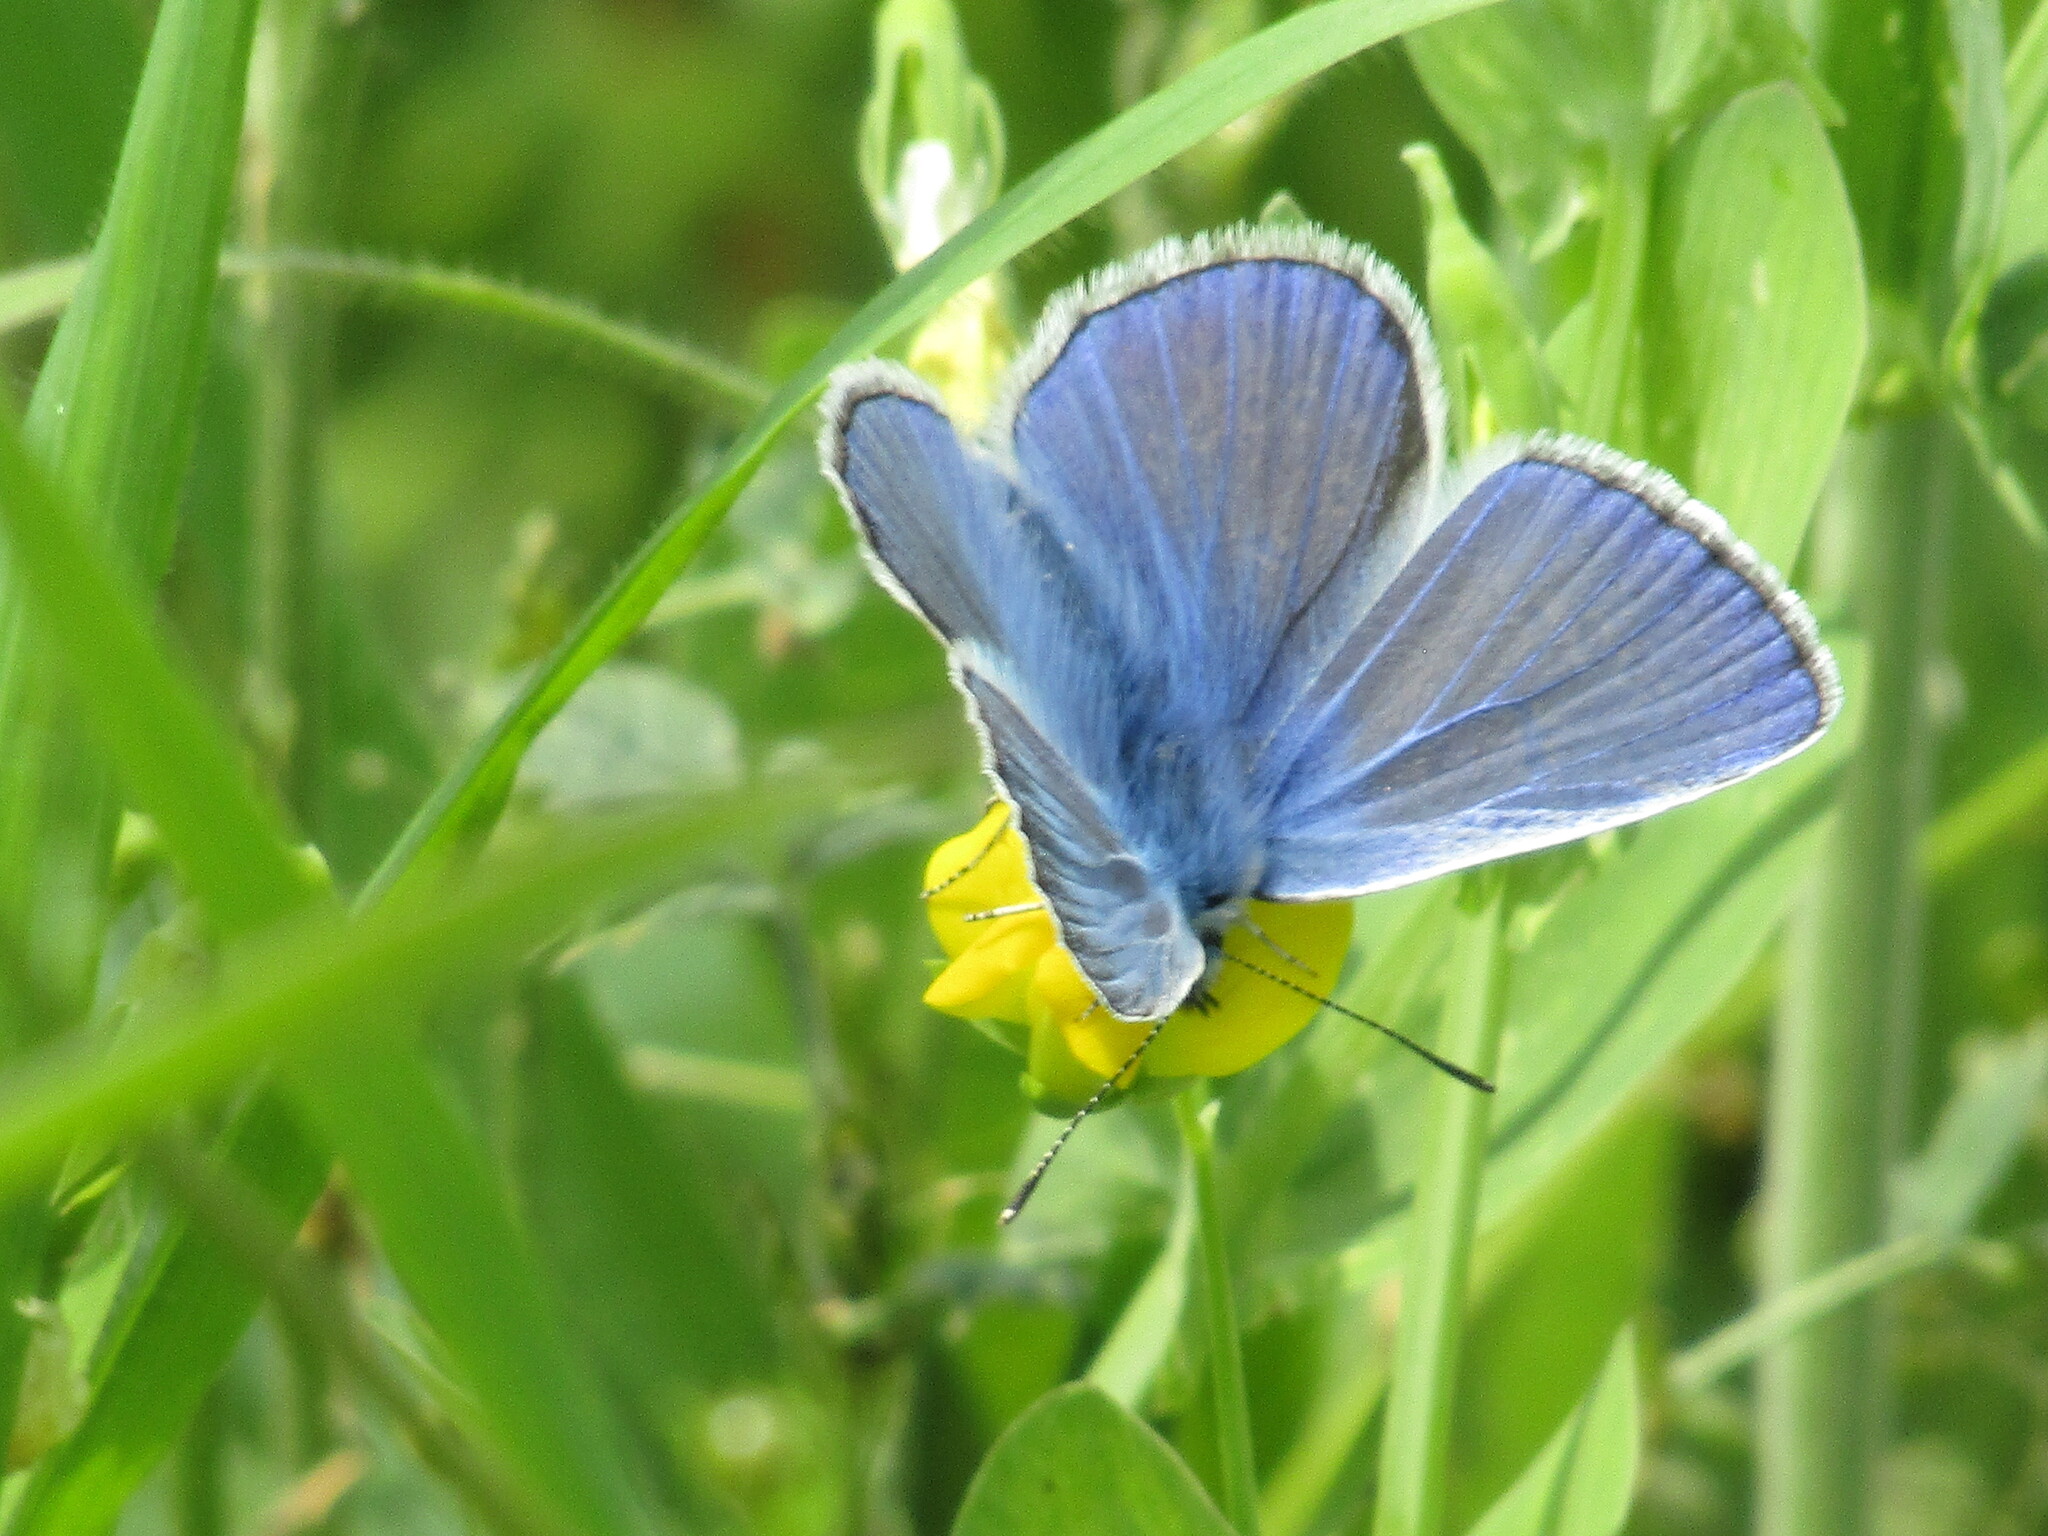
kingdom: Animalia
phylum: Arthropoda
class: Insecta
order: Lepidoptera
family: Lycaenidae
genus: Polyommatus
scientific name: Polyommatus icarus
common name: Common blue
